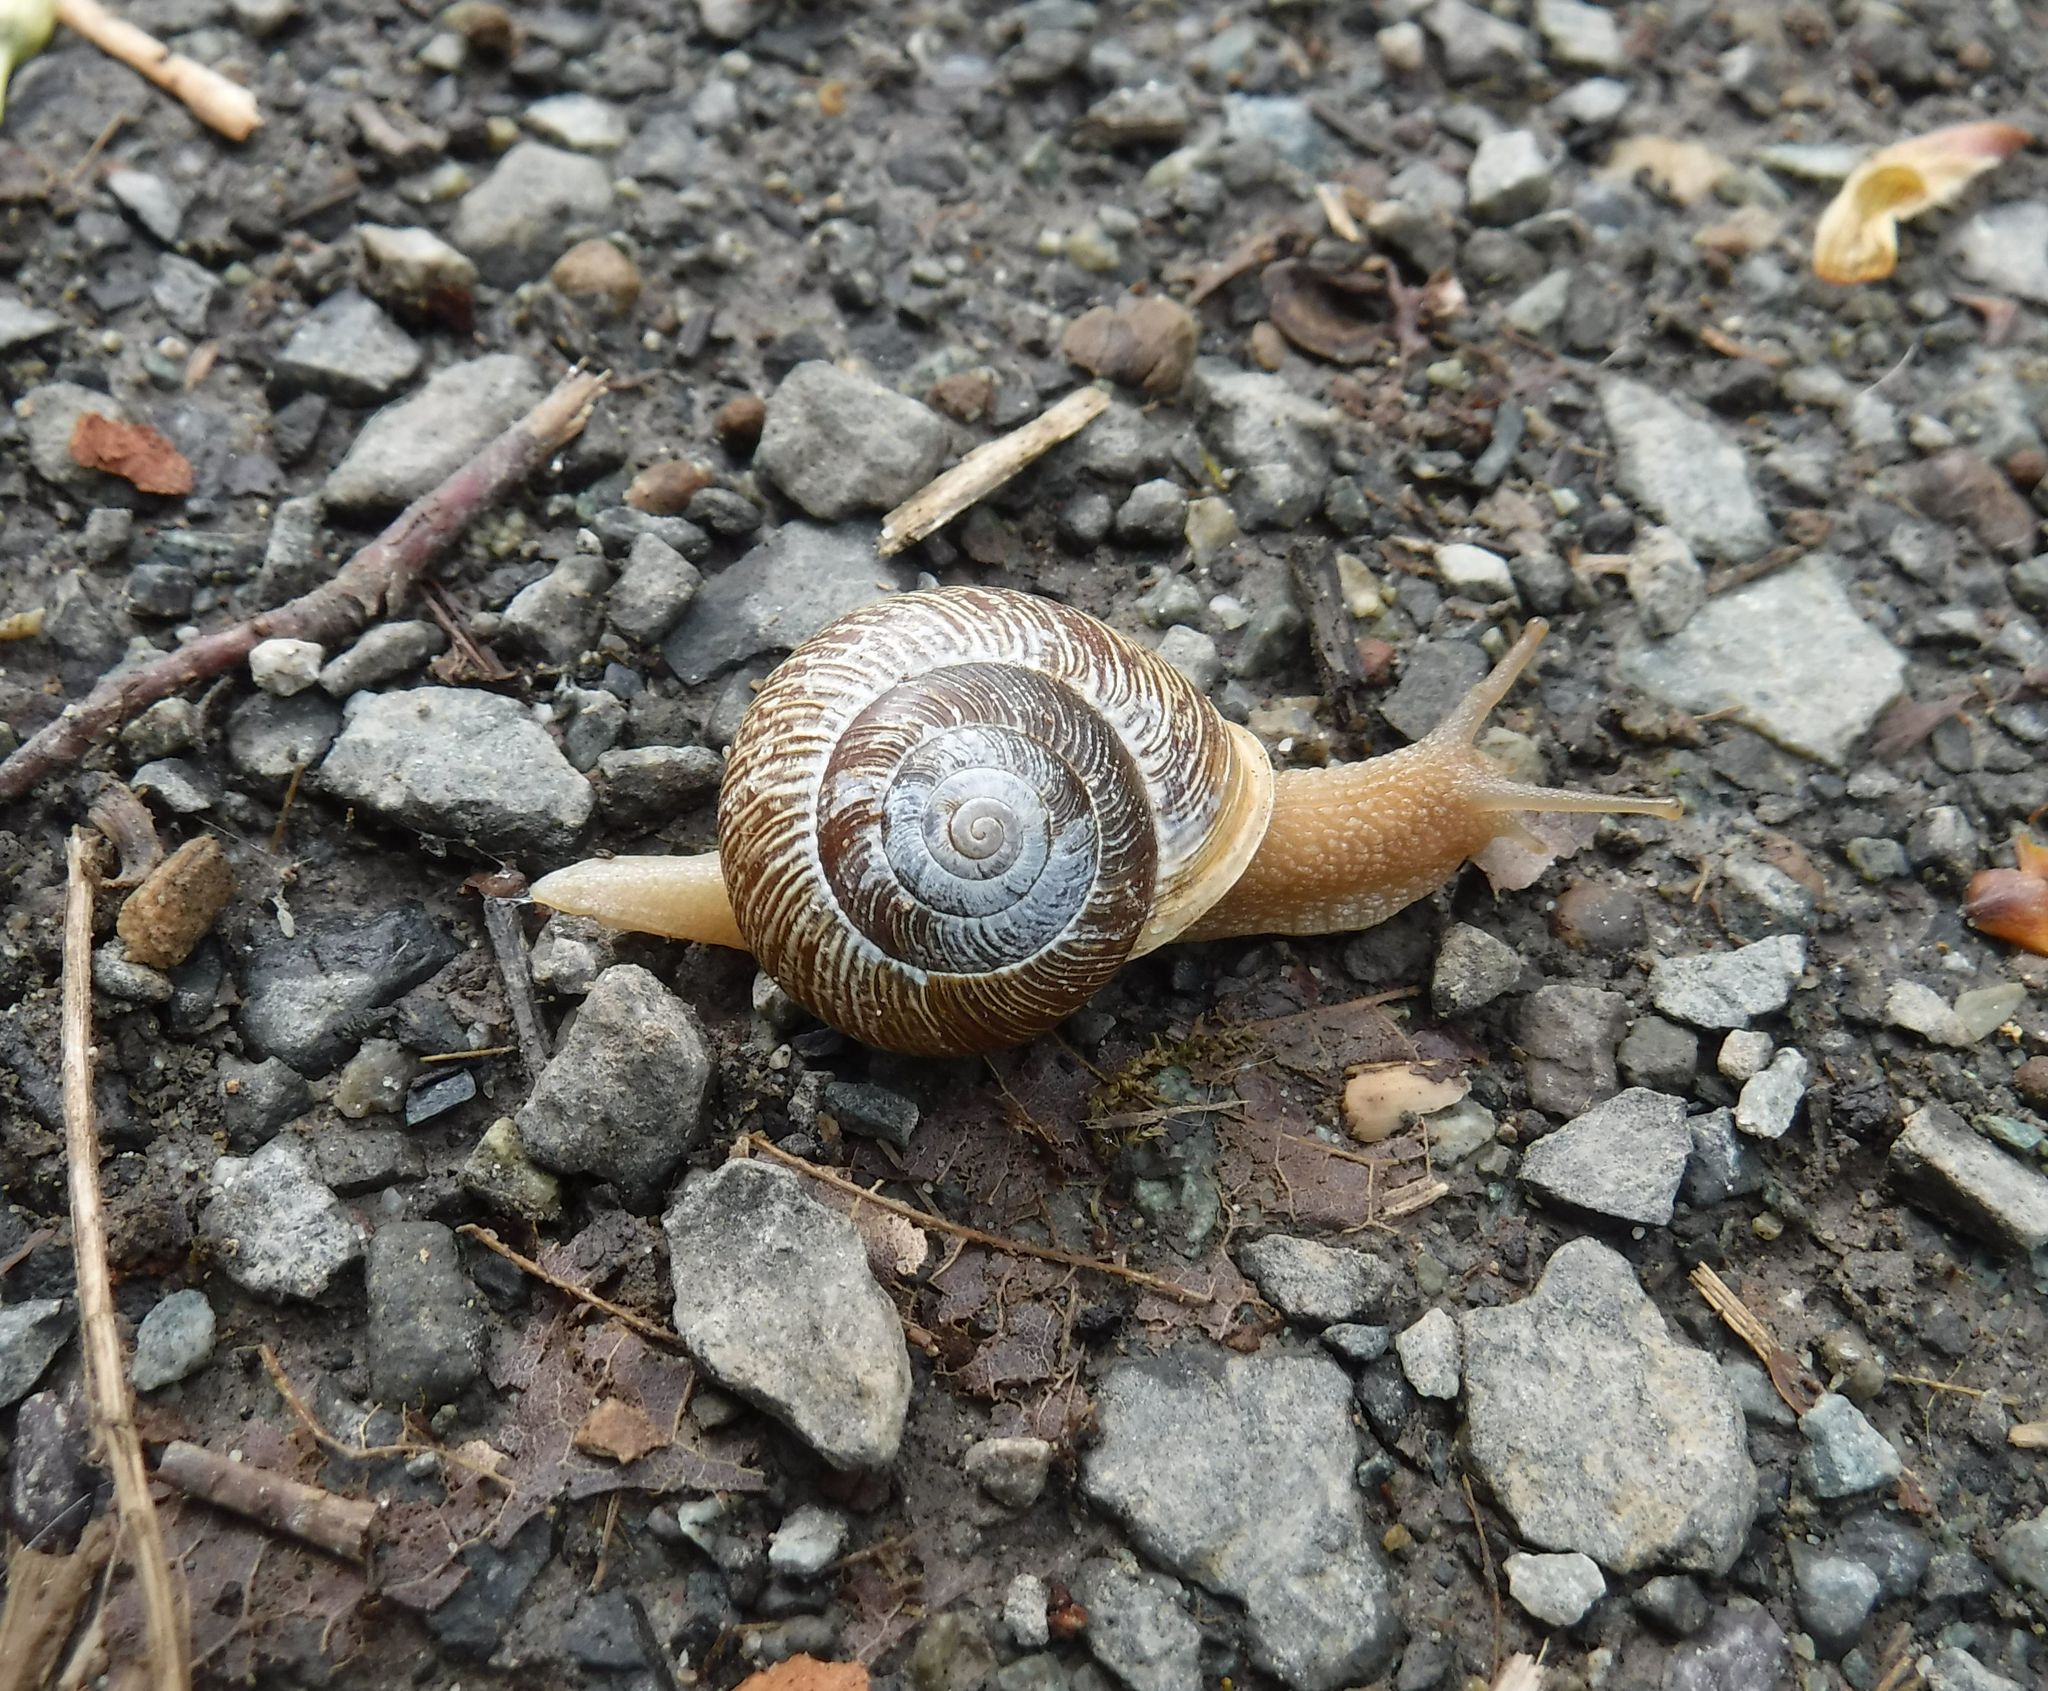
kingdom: Animalia
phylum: Mollusca
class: Gastropoda
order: Stylommatophora
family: Polygyridae
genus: Allogona
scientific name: Allogona townsendiana
